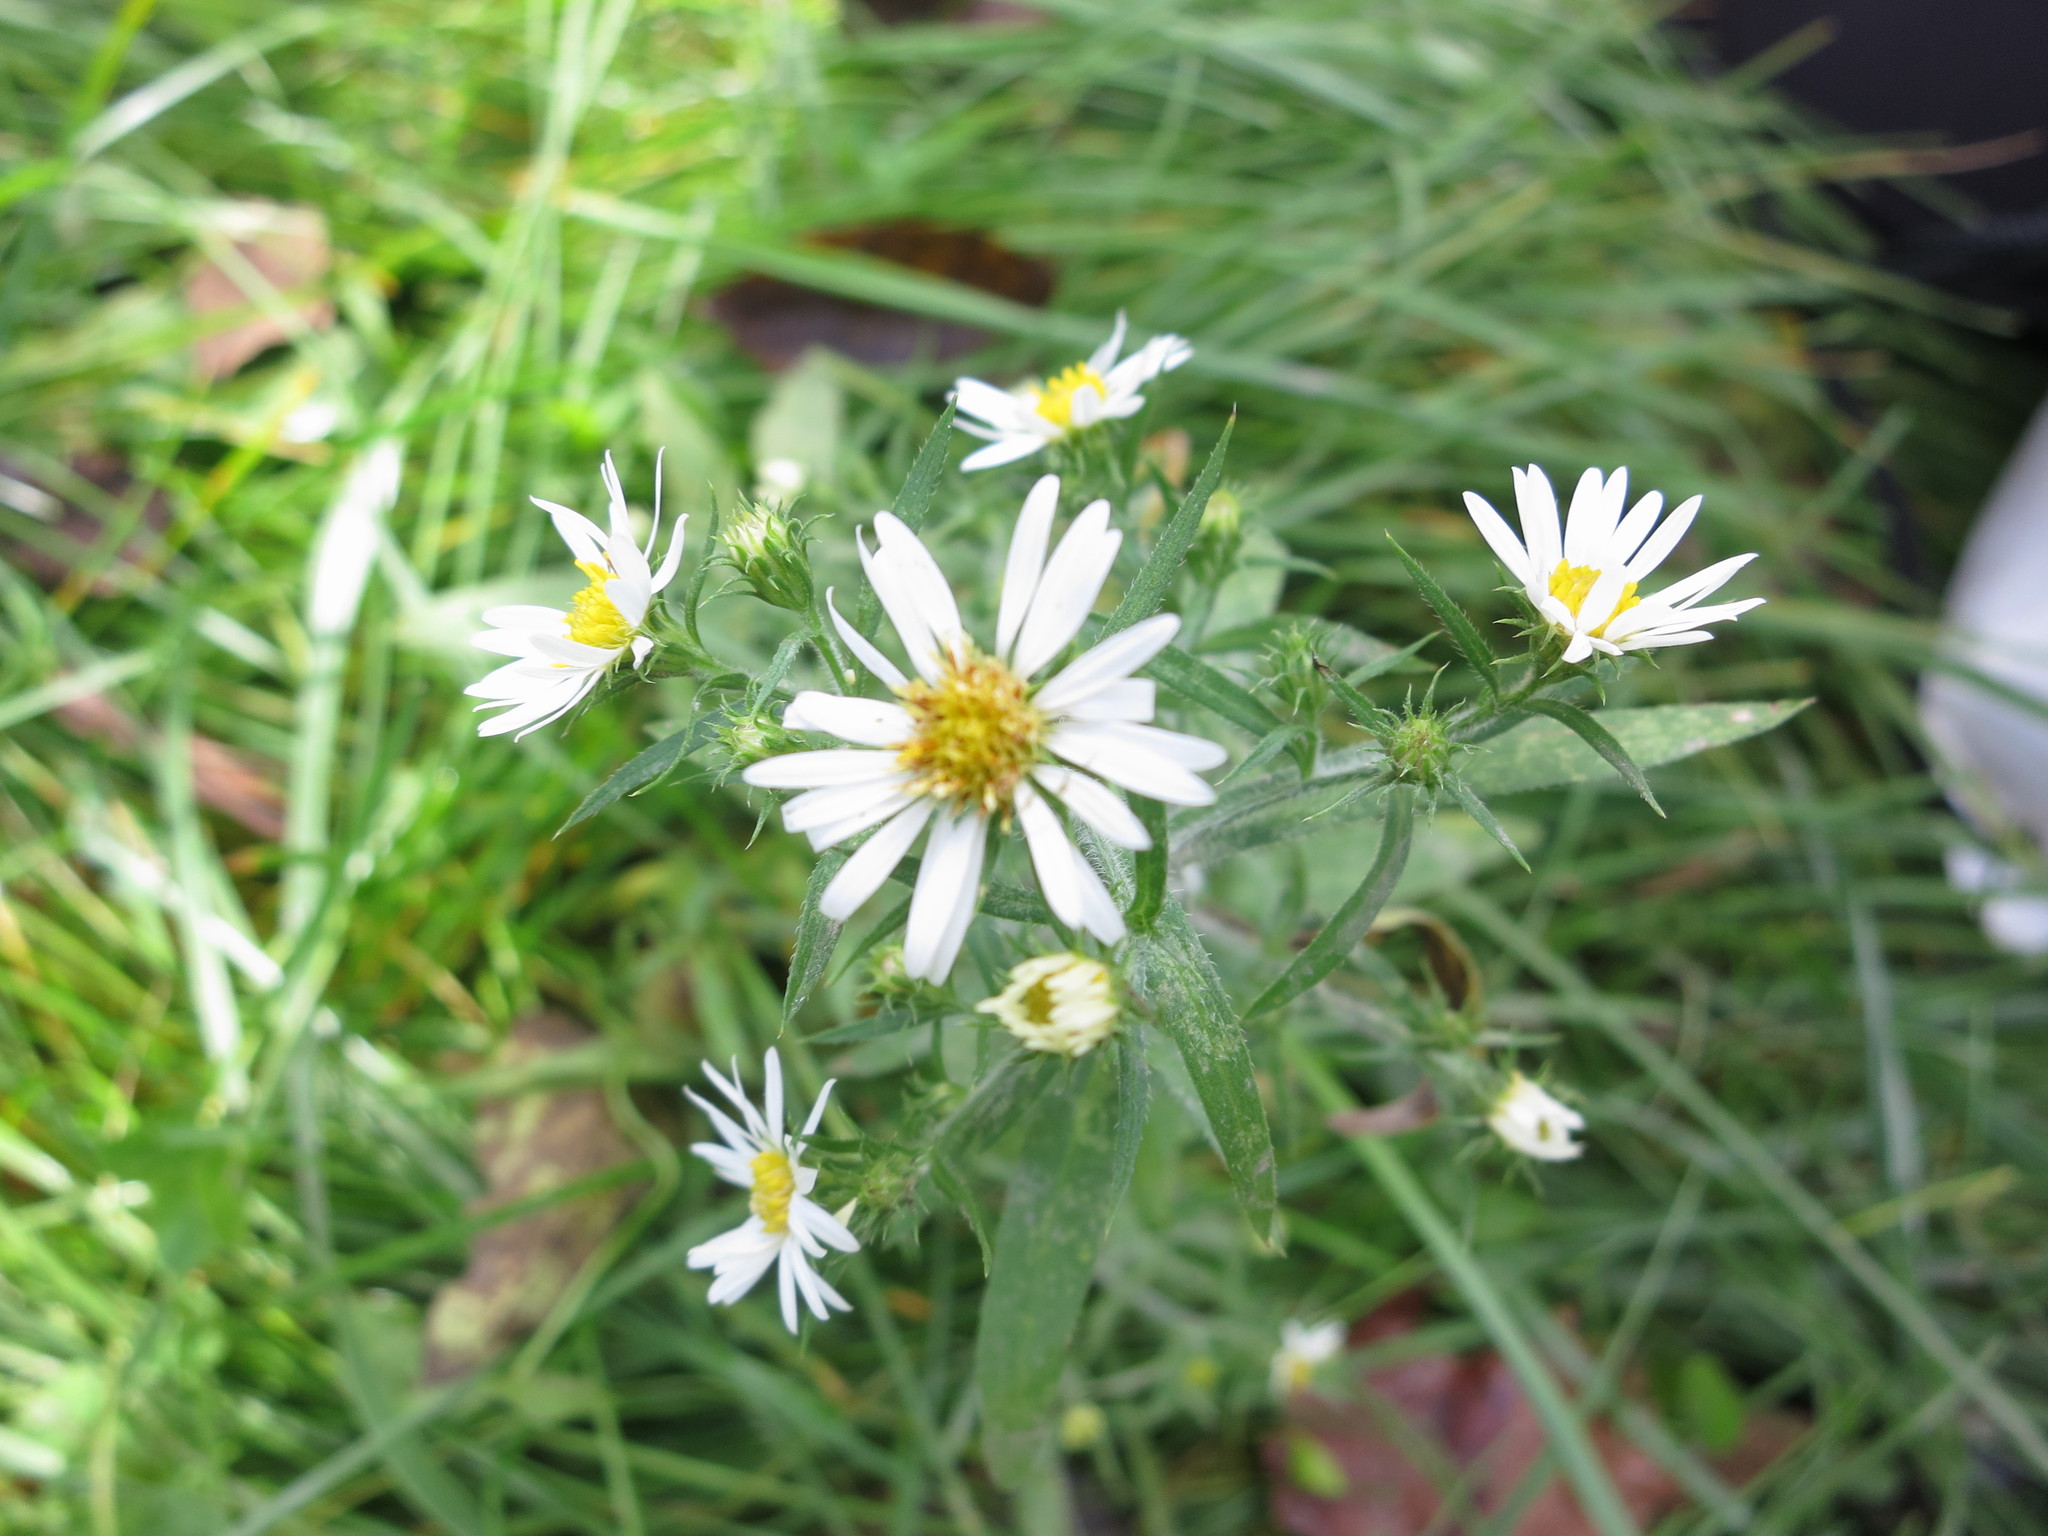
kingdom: Plantae
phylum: Tracheophyta
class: Magnoliopsida
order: Asterales
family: Asteraceae
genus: Symphyotrichum
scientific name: Symphyotrichum pilosum
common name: Awl aster
